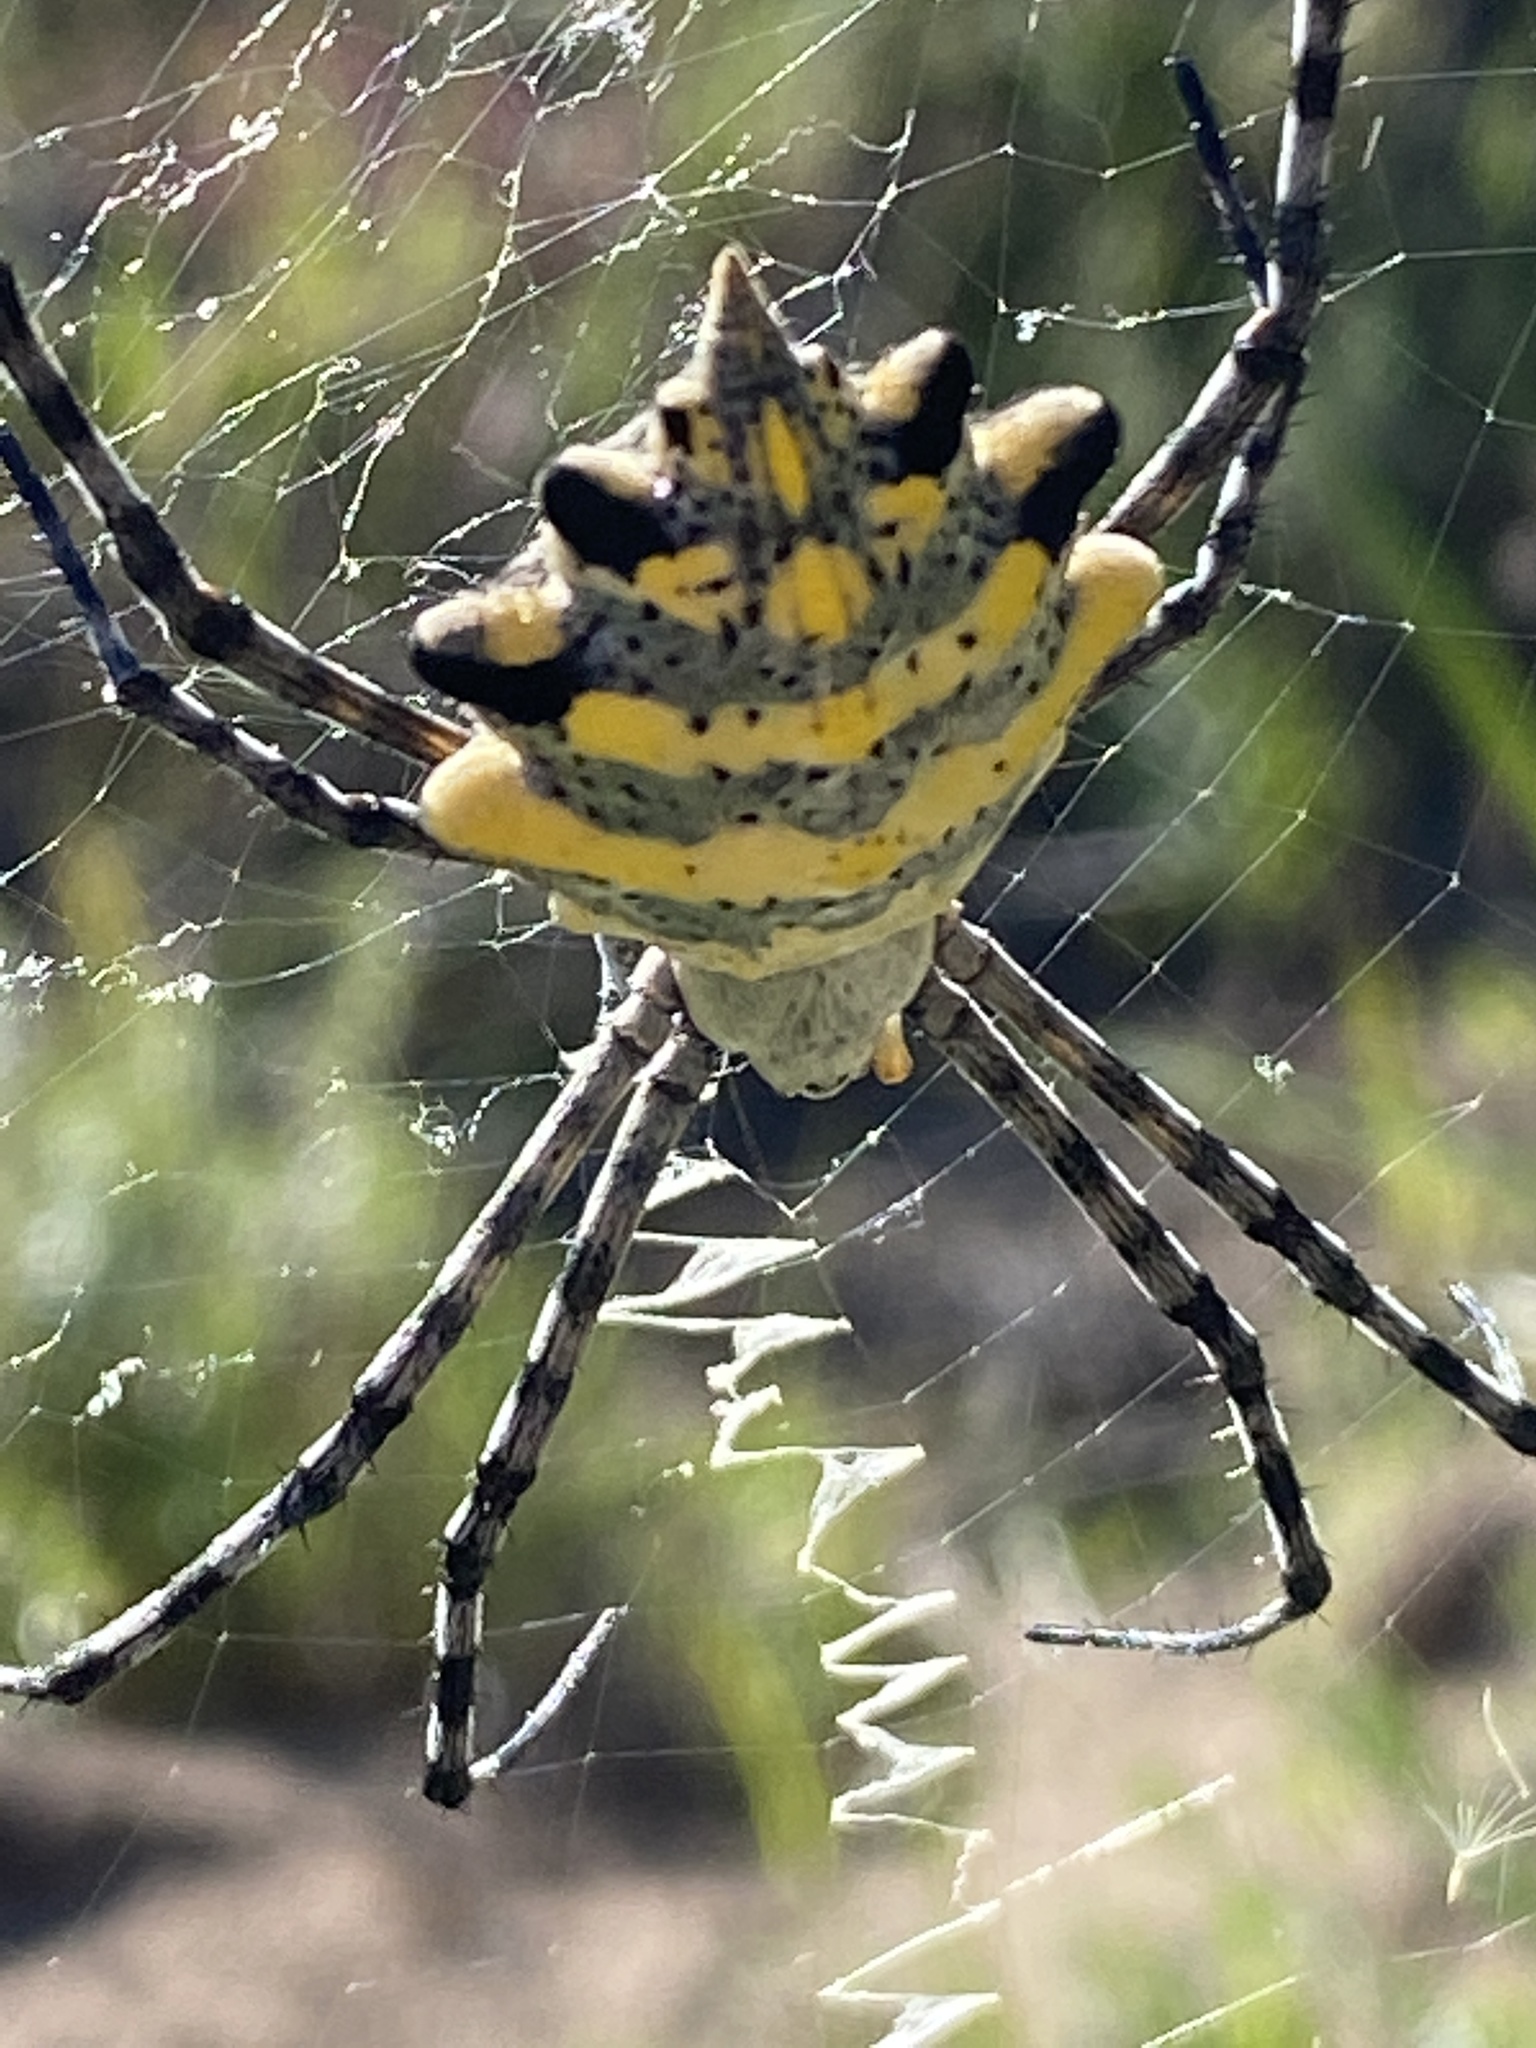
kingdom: Animalia
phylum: Arthropoda
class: Arachnida
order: Araneae
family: Araneidae
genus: Argiope
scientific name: Argiope australis
